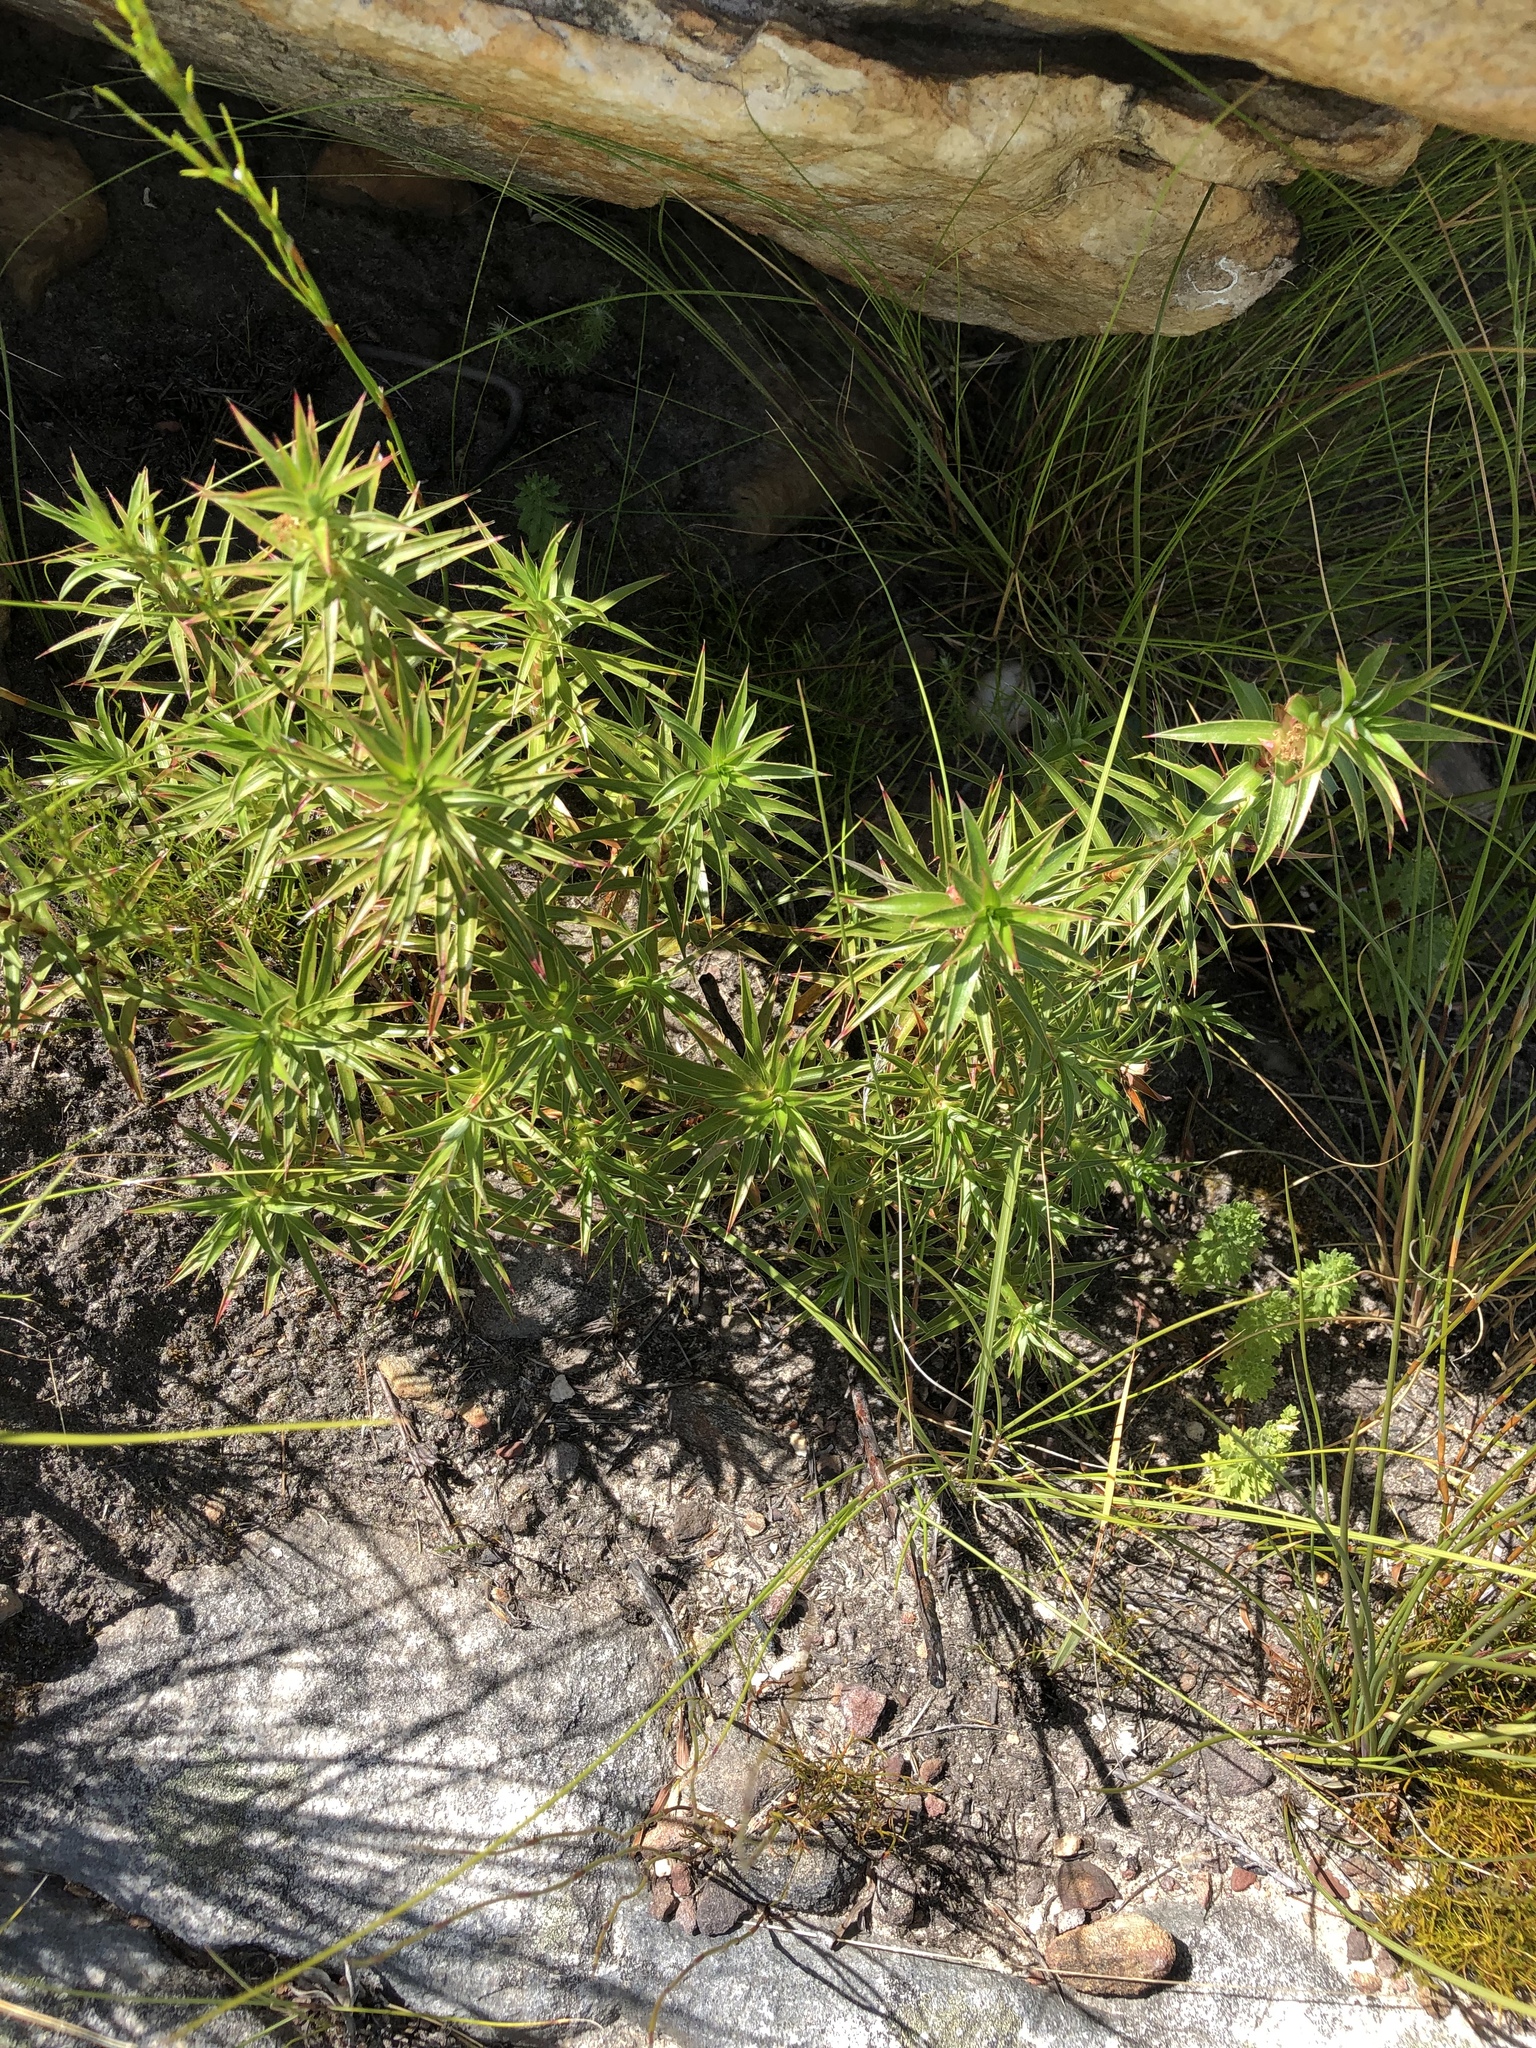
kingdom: Plantae
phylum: Tracheophyta
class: Magnoliopsida
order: Rosales
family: Rosaceae
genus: Cliffortia
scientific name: Cliffortia dregeana
